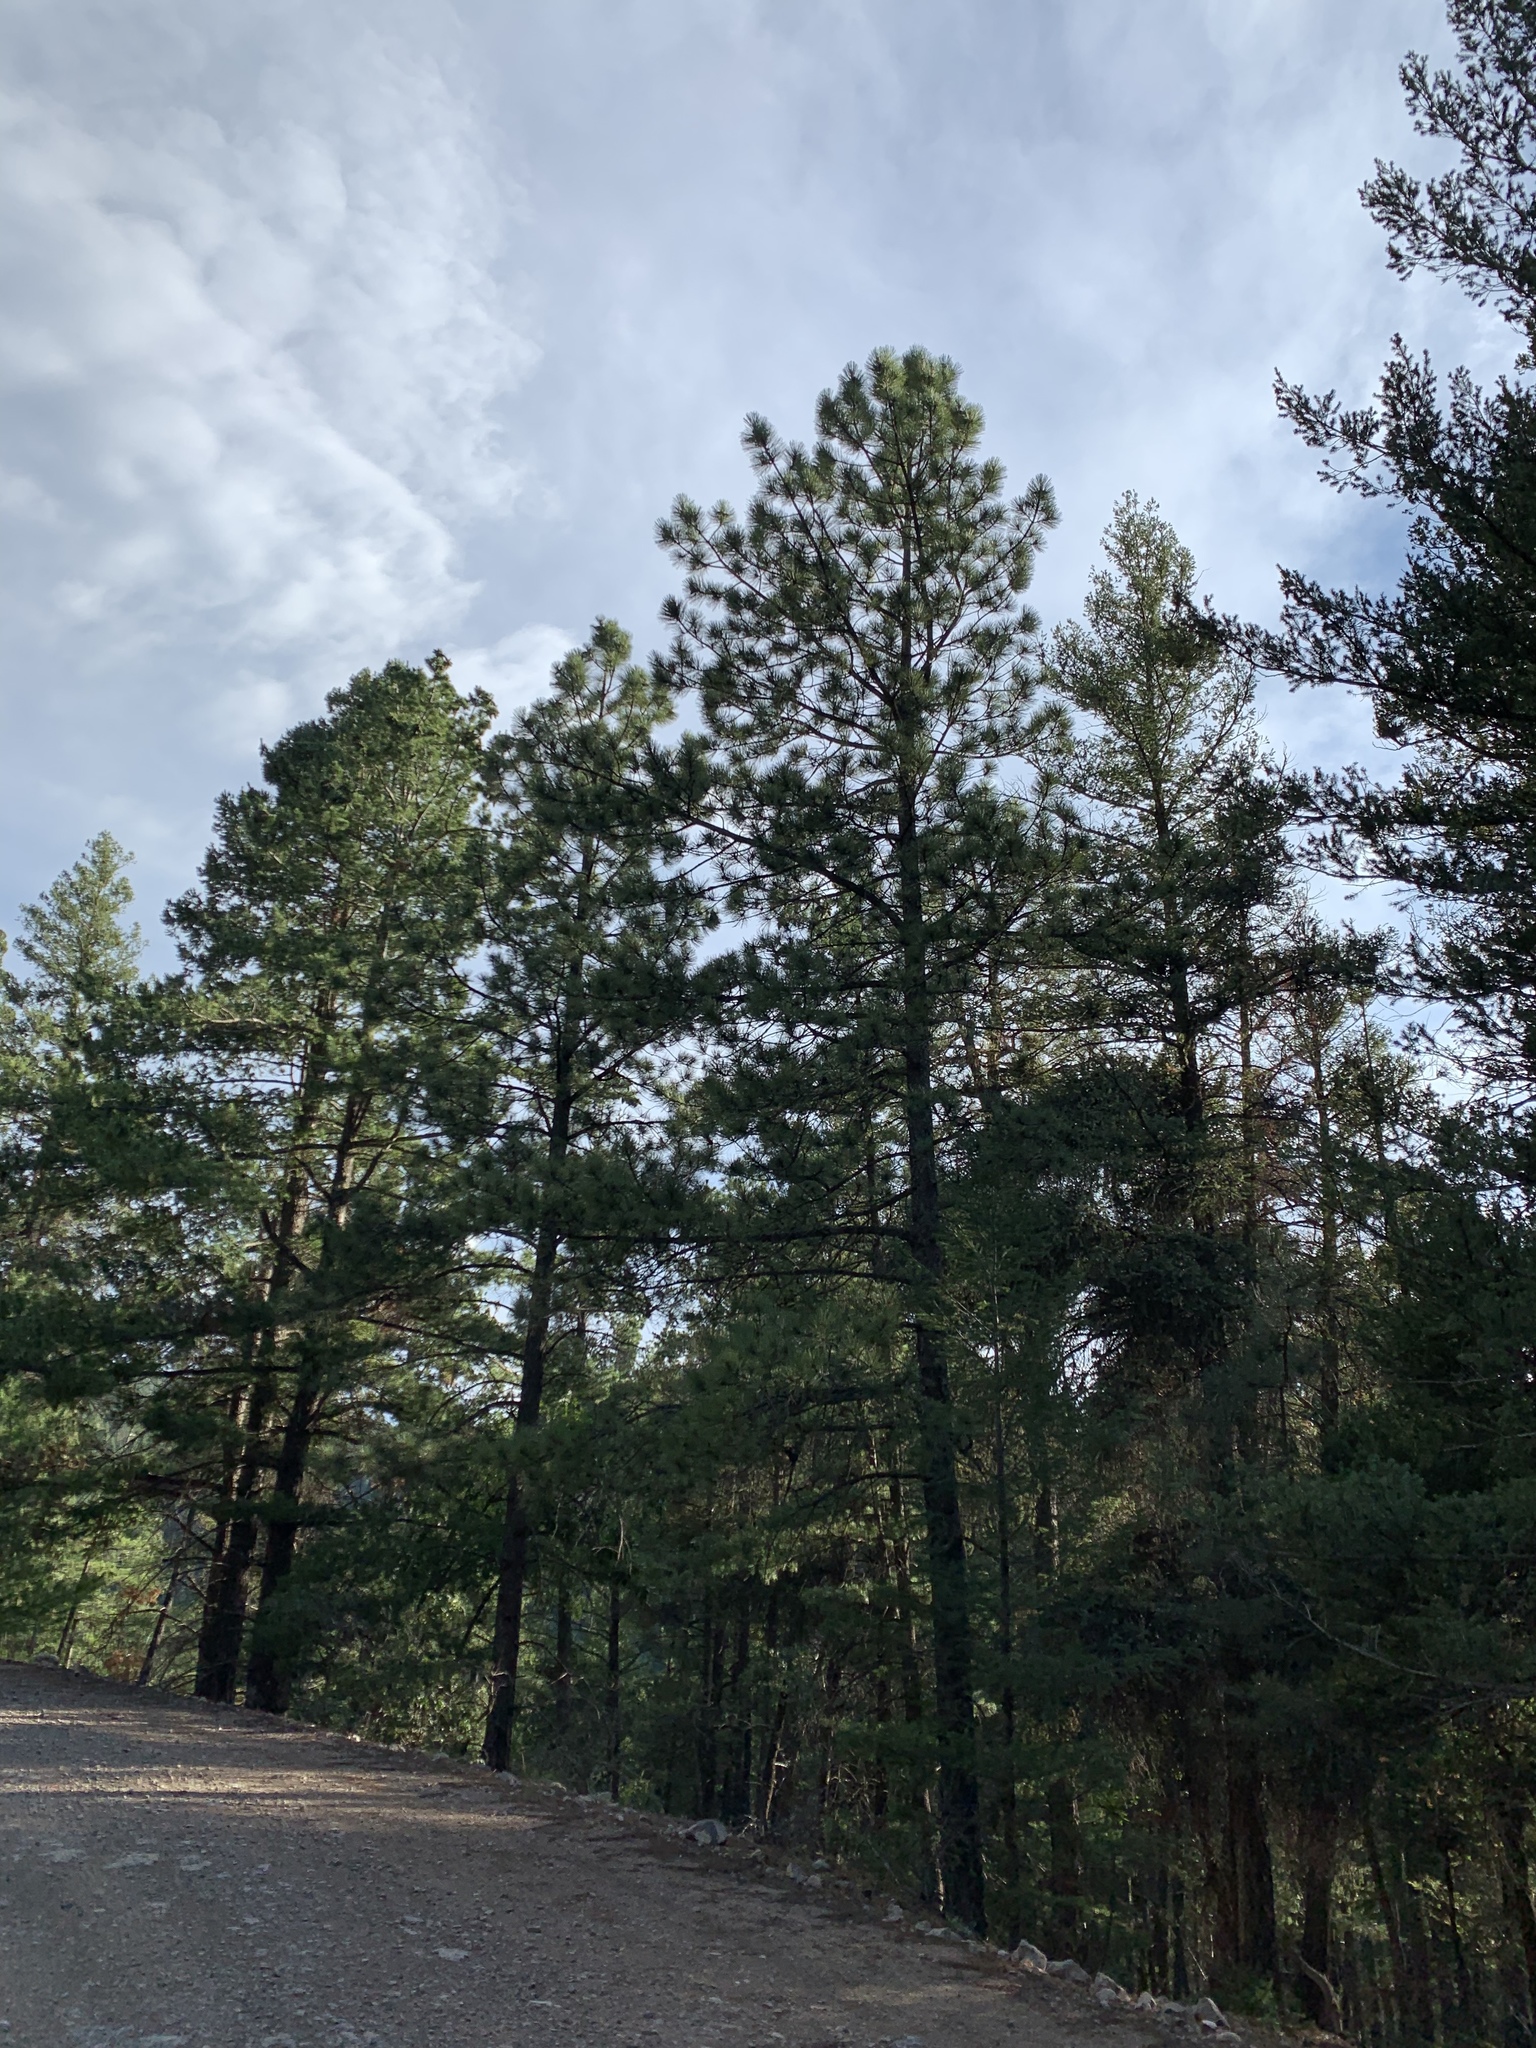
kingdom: Plantae
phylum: Tracheophyta
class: Pinopsida
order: Pinales
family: Pinaceae
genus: Pinus
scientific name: Pinus ponderosa
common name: Western yellow-pine
